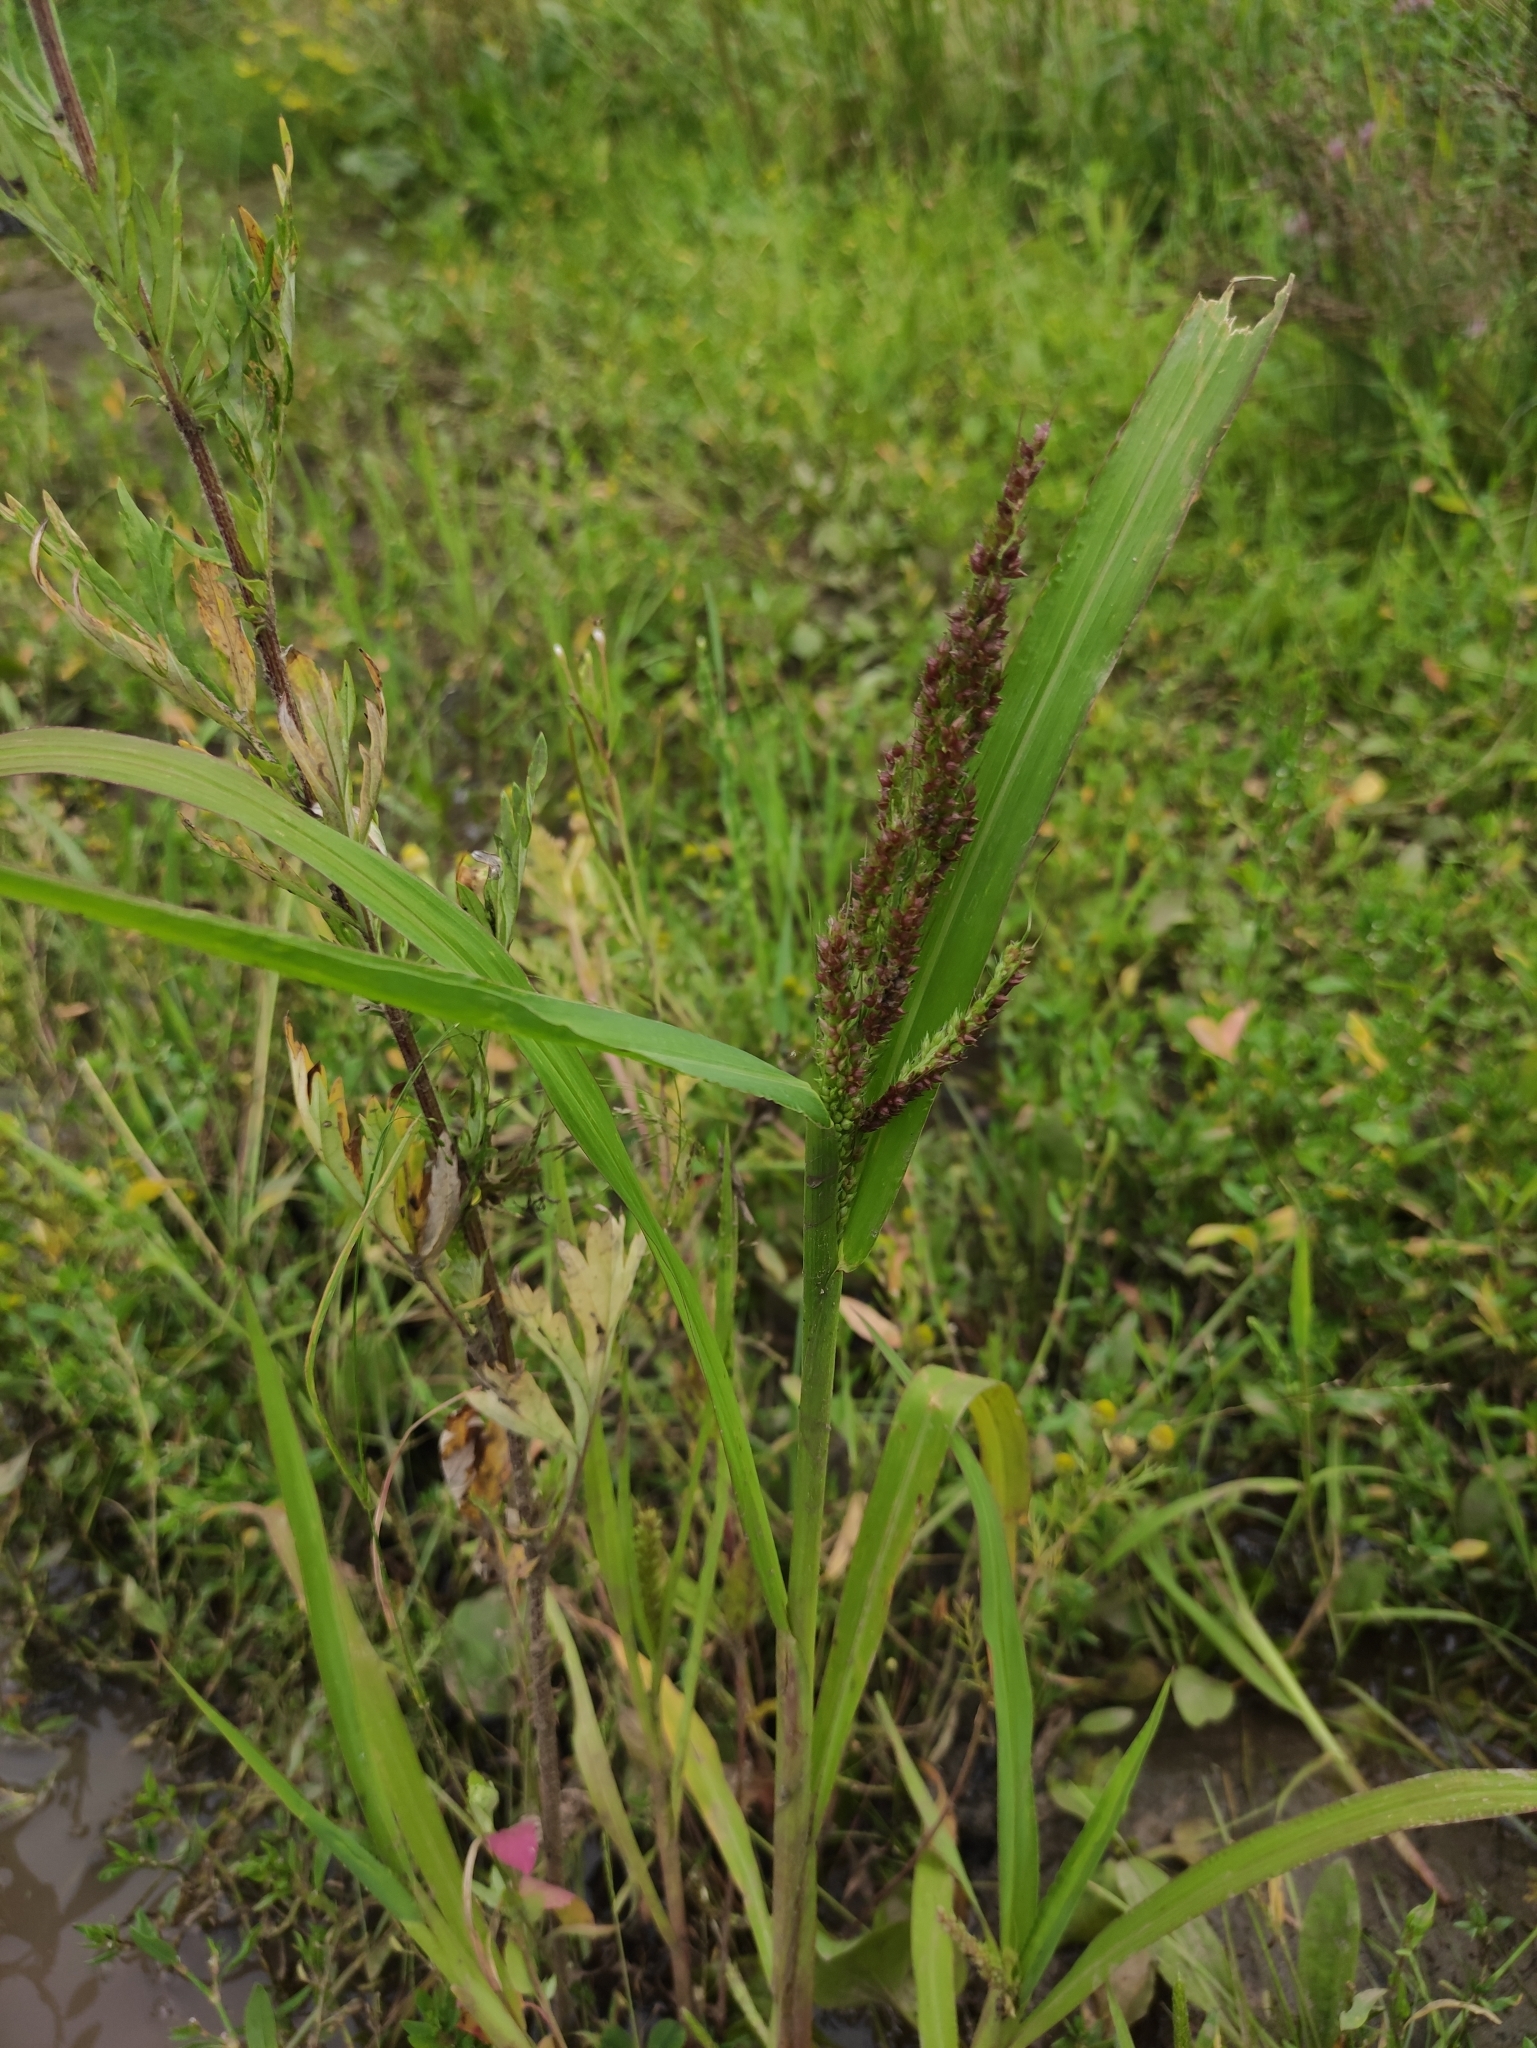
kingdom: Plantae
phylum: Tracheophyta
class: Liliopsida
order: Poales
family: Poaceae
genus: Echinochloa
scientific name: Echinochloa crus-galli
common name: Cockspur
